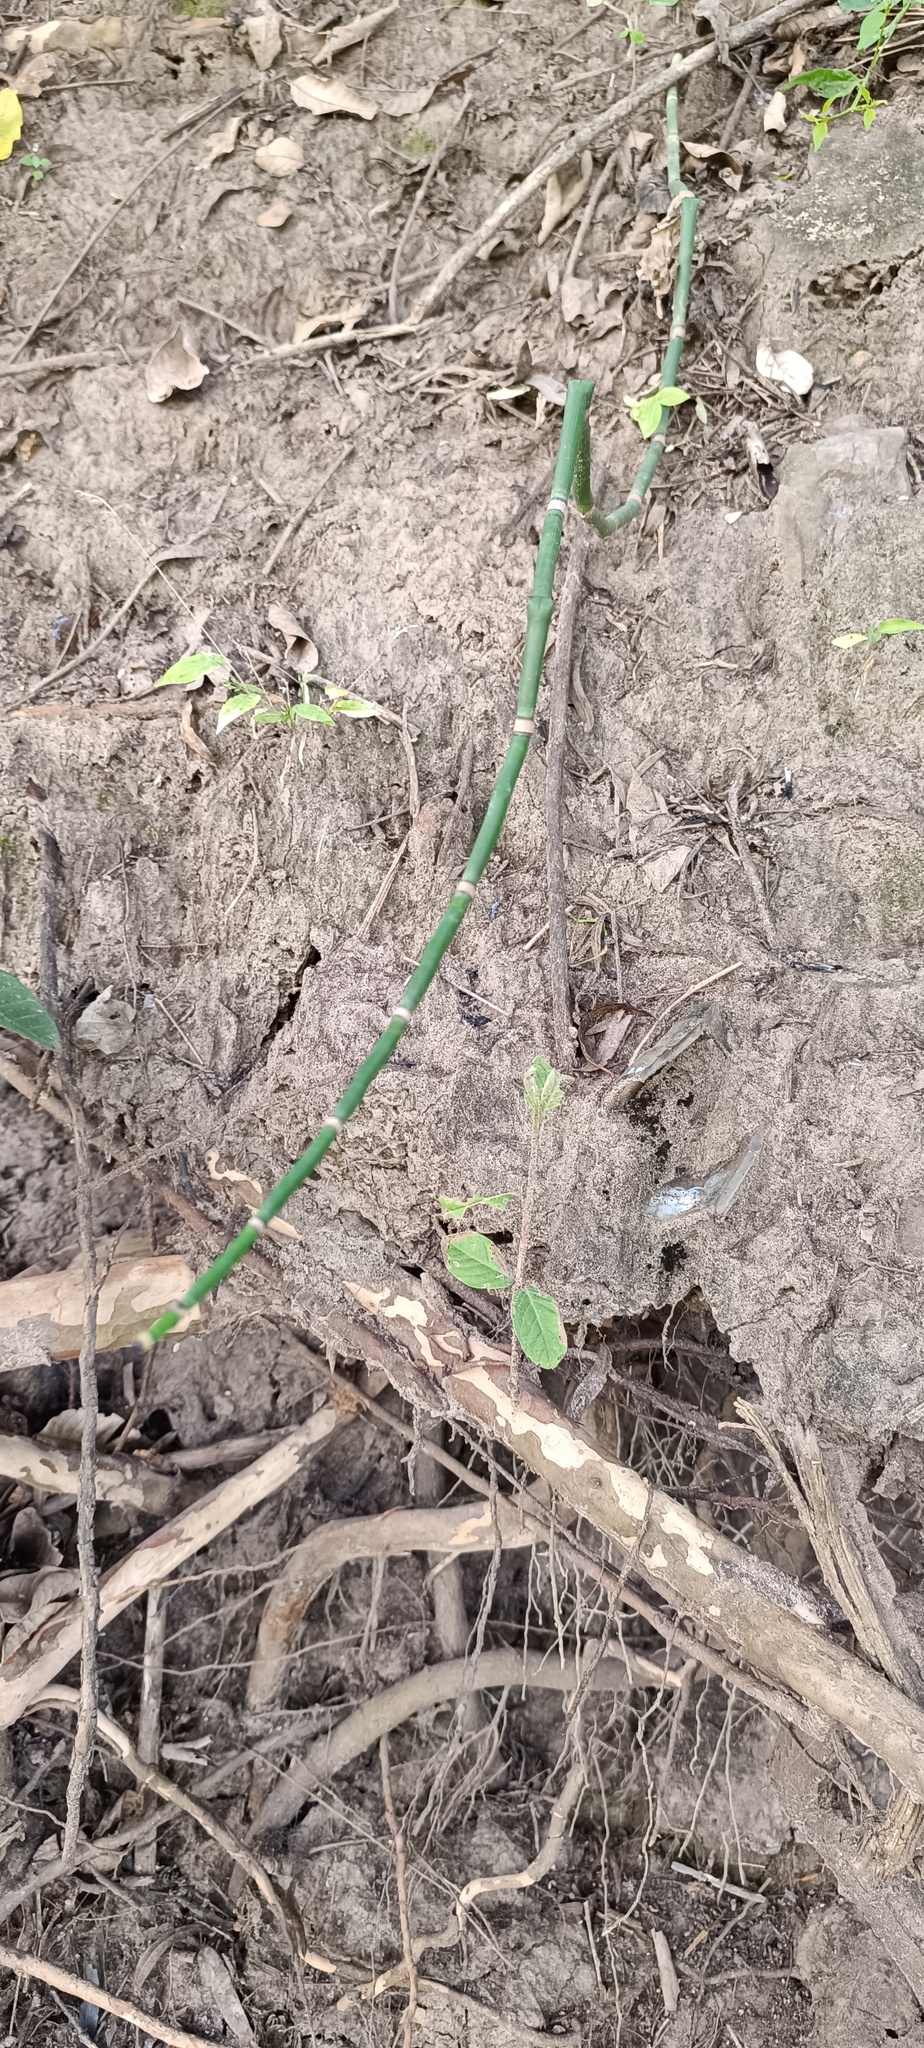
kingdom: Plantae
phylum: Tracheophyta
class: Polypodiopsida
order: Equisetales
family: Equisetaceae
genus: Equisetum
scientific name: Equisetum praealtum
